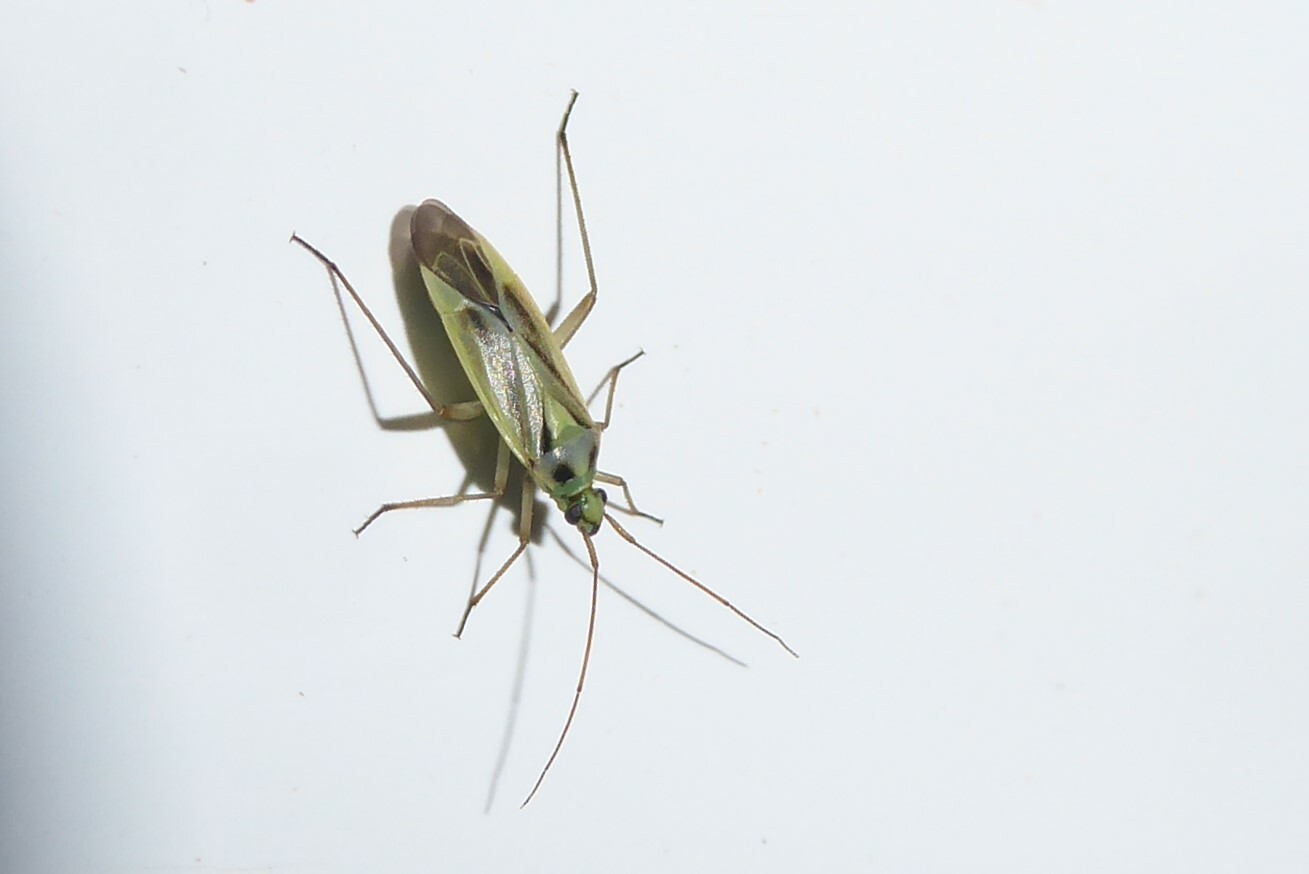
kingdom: Animalia
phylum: Arthropoda
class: Insecta
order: Hemiptera
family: Miridae
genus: Stenotus
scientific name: Stenotus binotatus
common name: Plant bug
